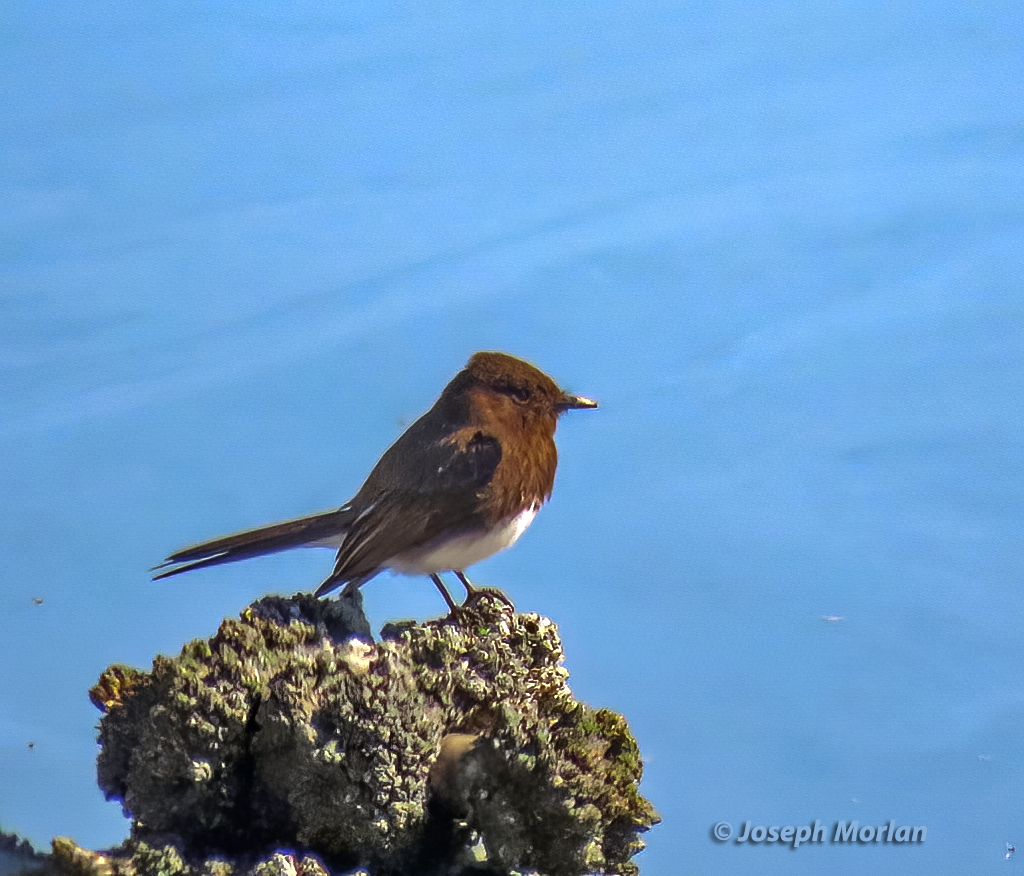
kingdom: Animalia
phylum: Chordata
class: Aves
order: Passeriformes
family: Tyrannidae
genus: Sayornis
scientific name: Sayornis nigricans
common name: Black phoebe
